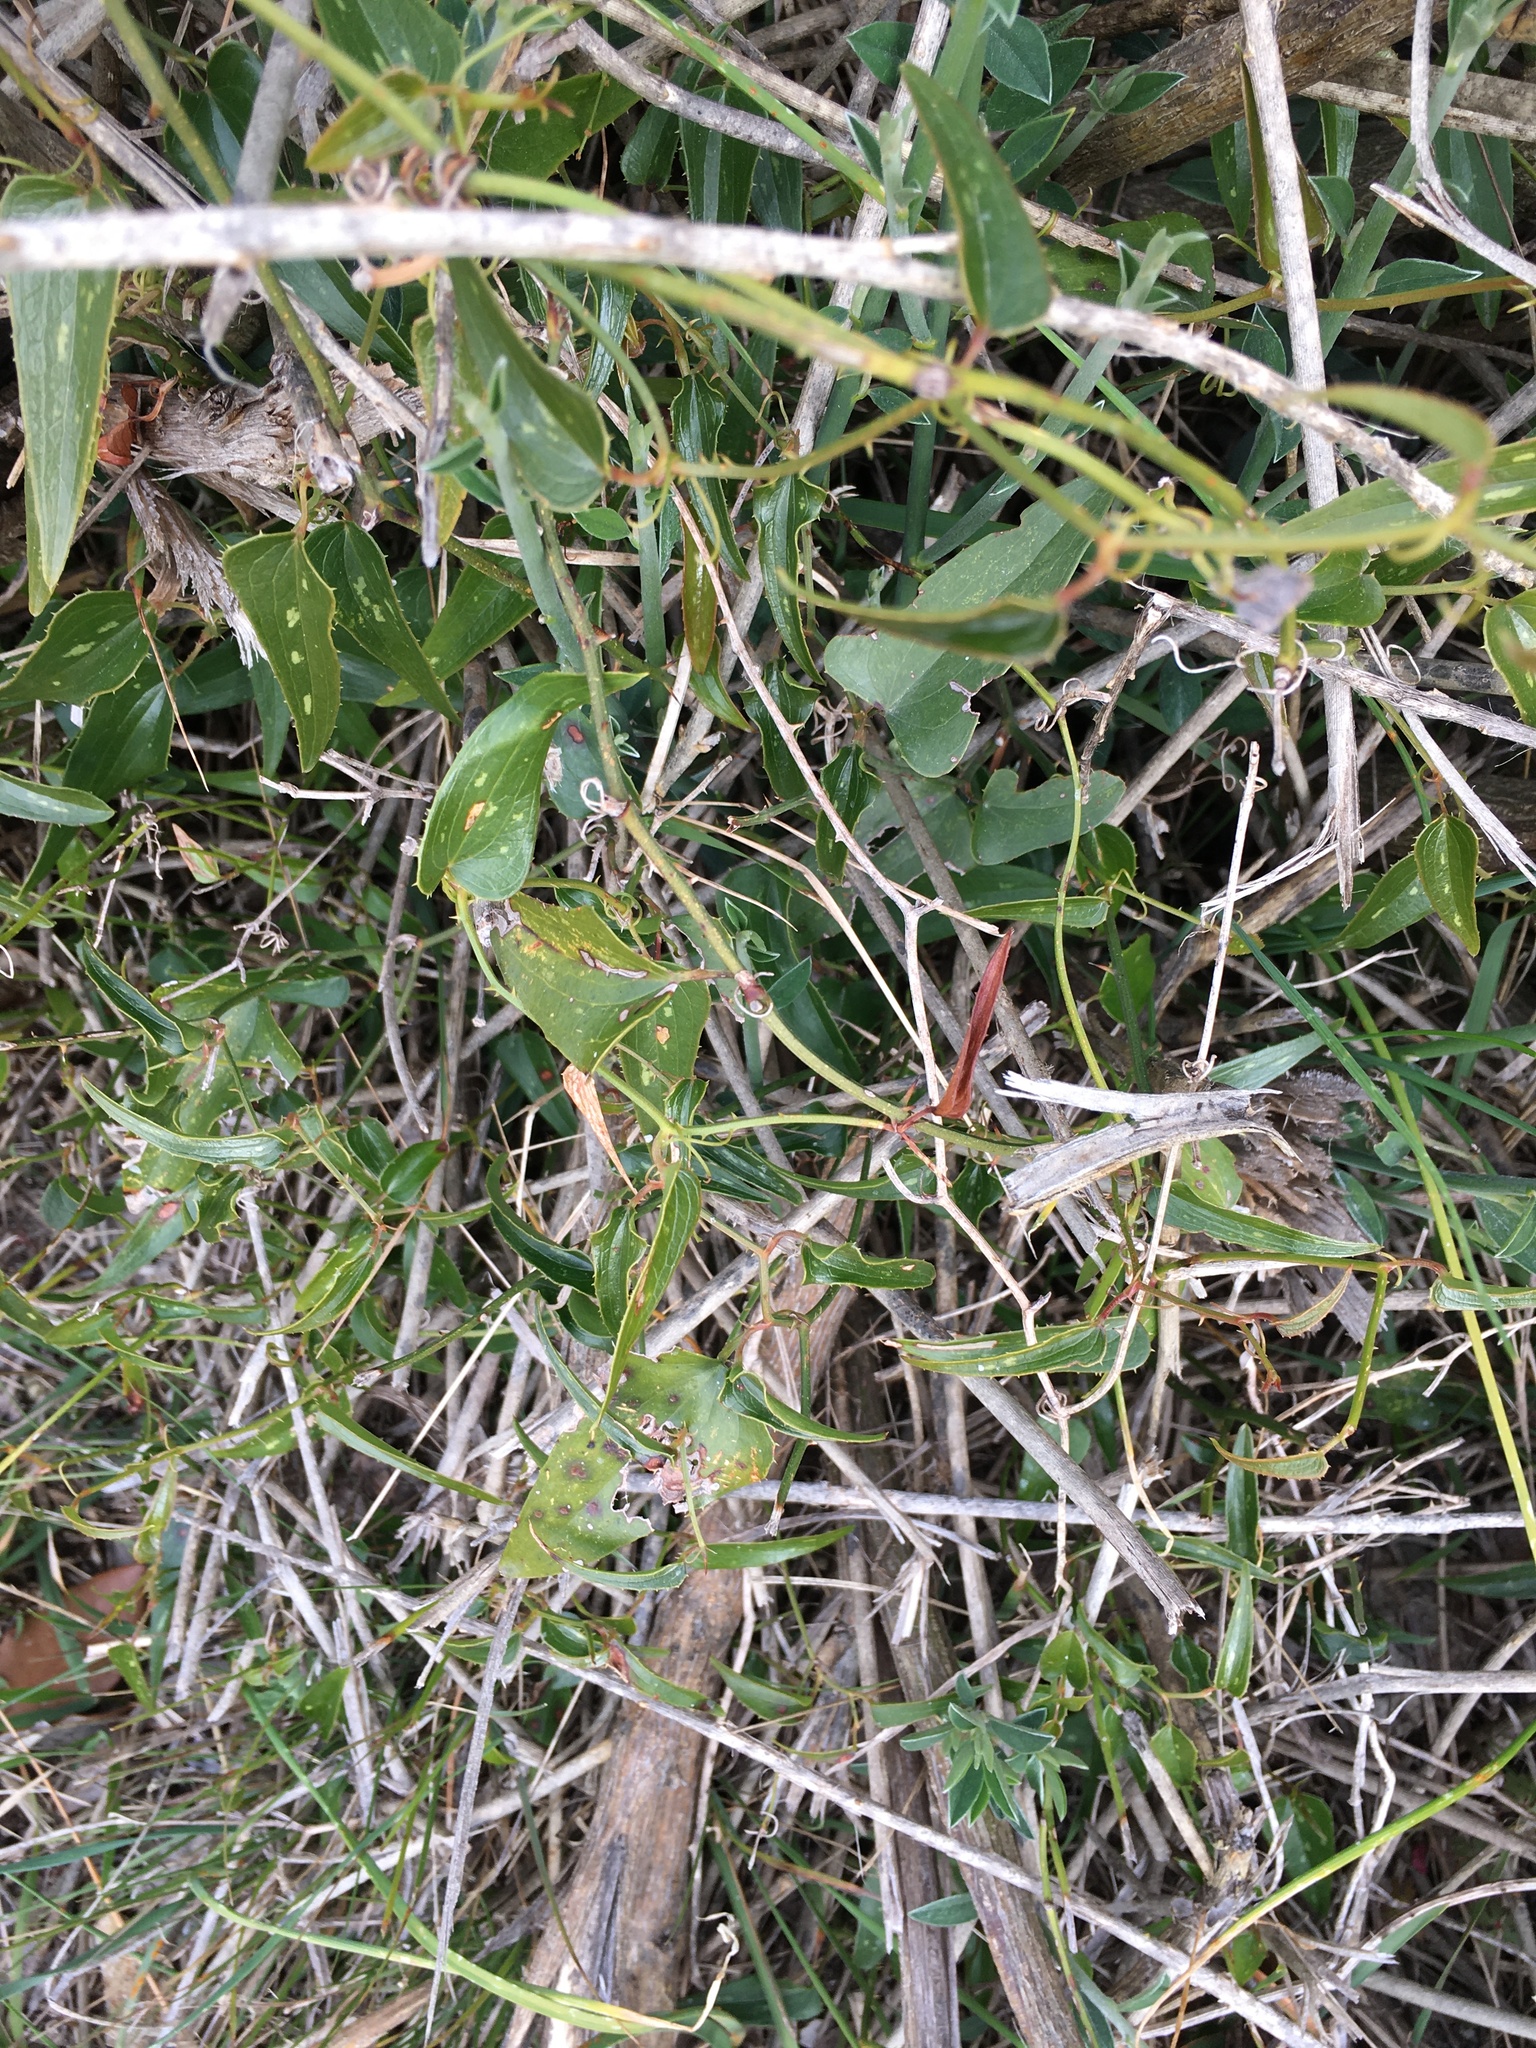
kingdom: Plantae
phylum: Tracheophyta
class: Liliopsida
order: Liliales
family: Smilacaceae
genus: Smilax
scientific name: Smilax aspera
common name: Common smilax
